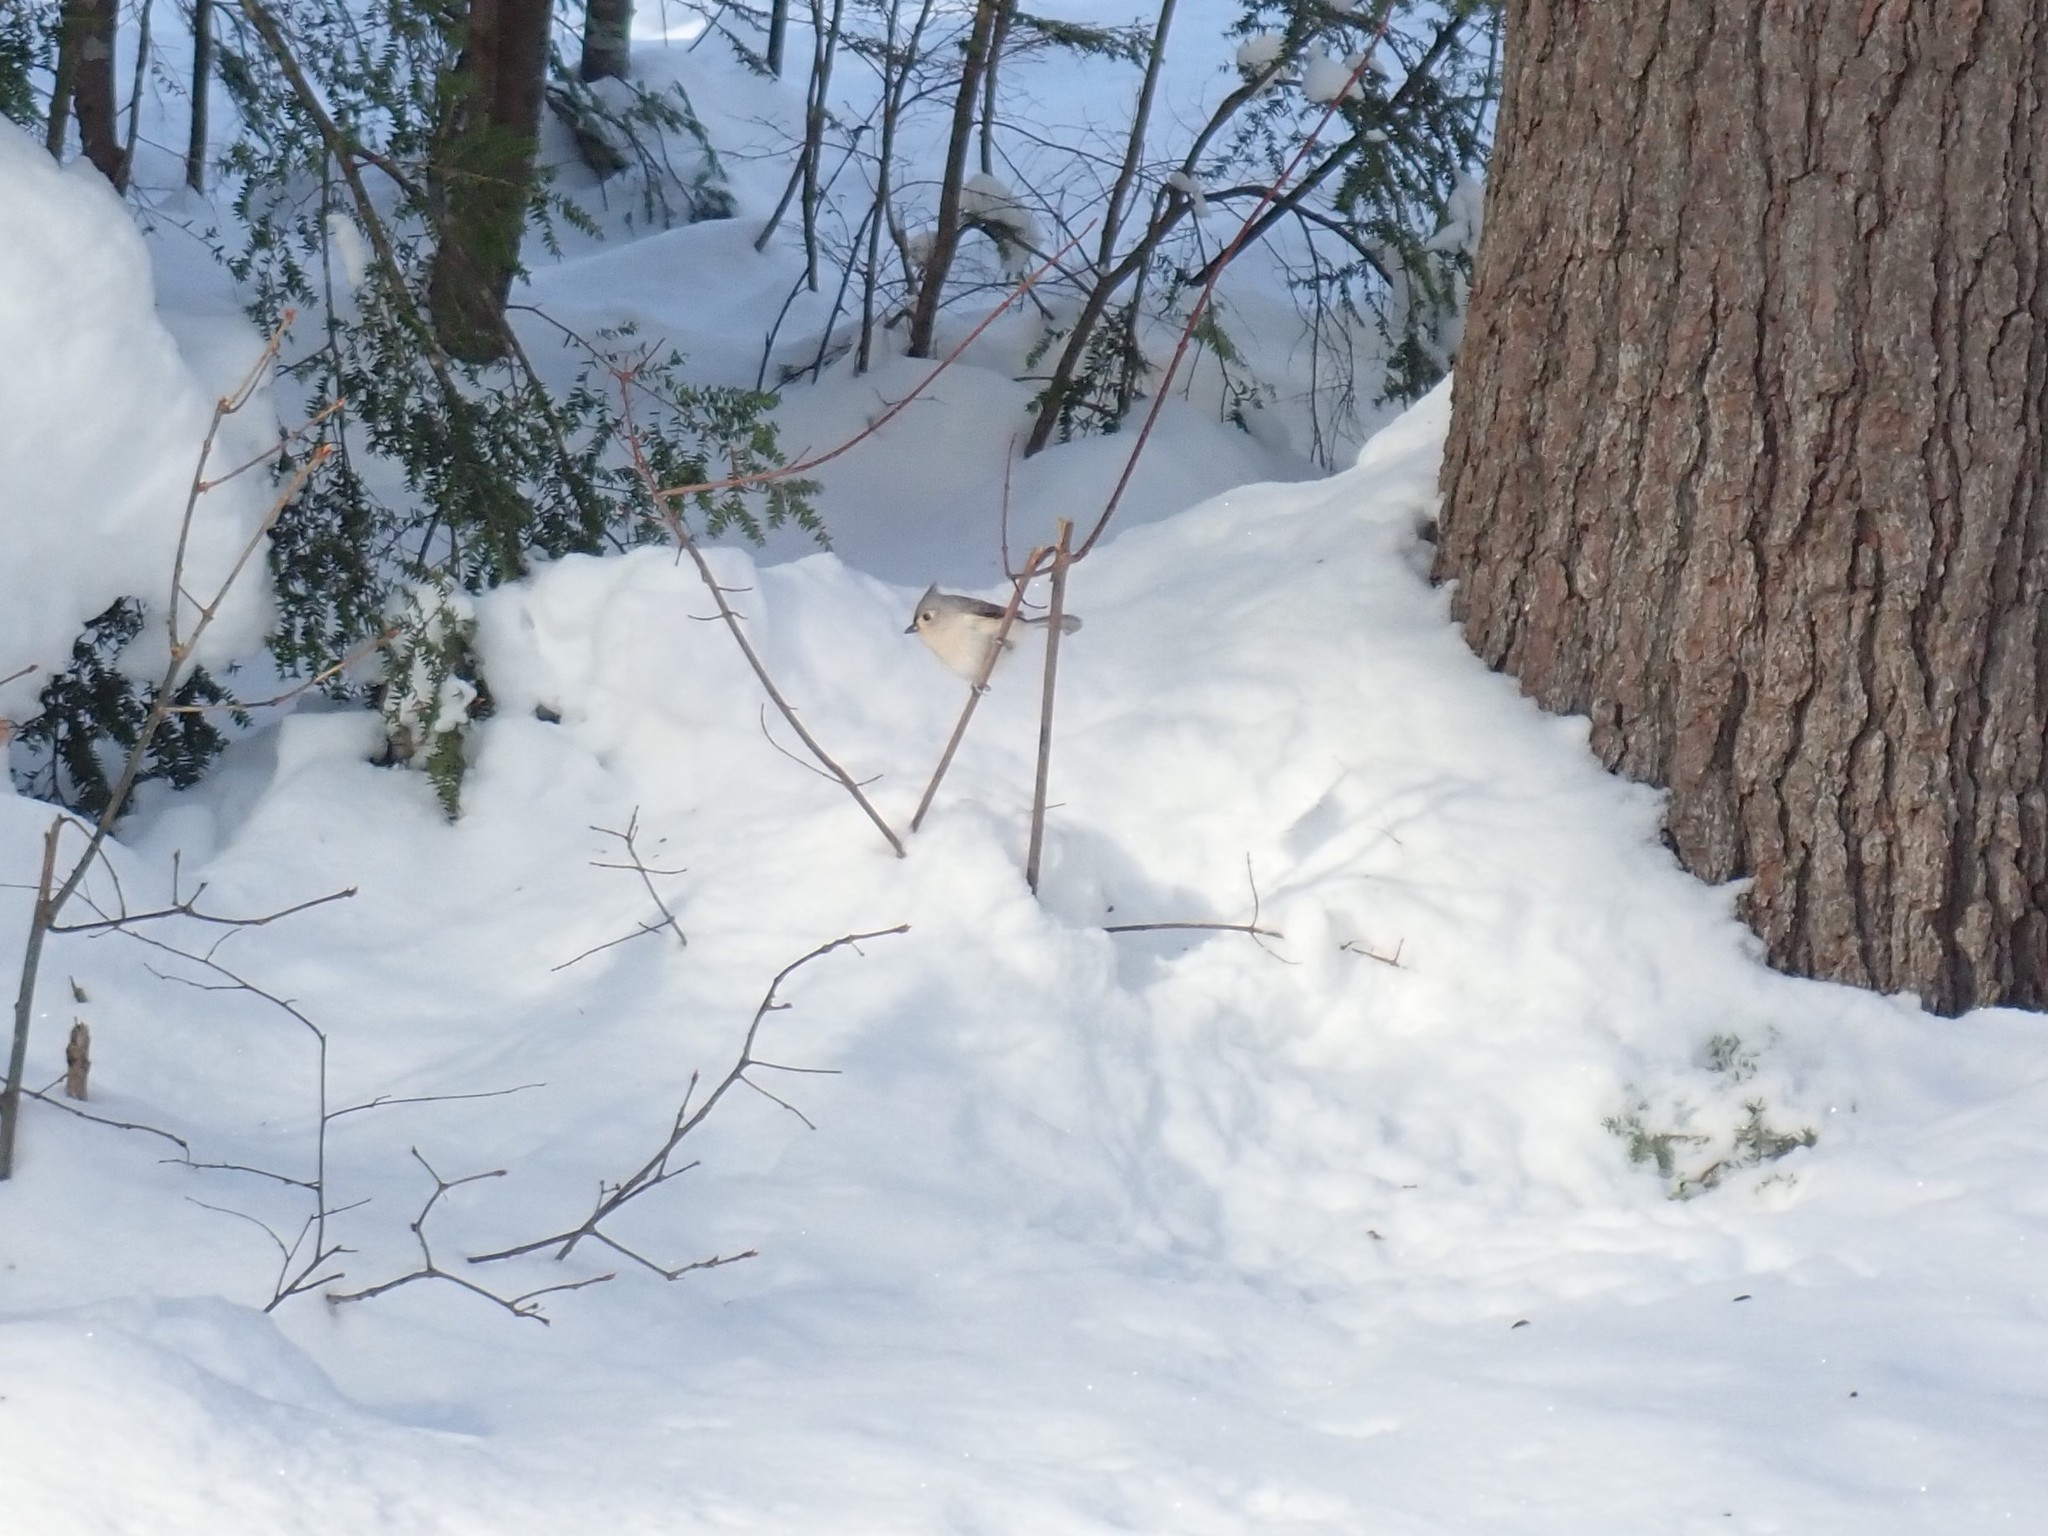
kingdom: Animalia
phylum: Chordata
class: Aves
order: Passeriformes
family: Paridae
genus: Baeolophus
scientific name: Baeolophus bicolor
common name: Tufted titmouse
